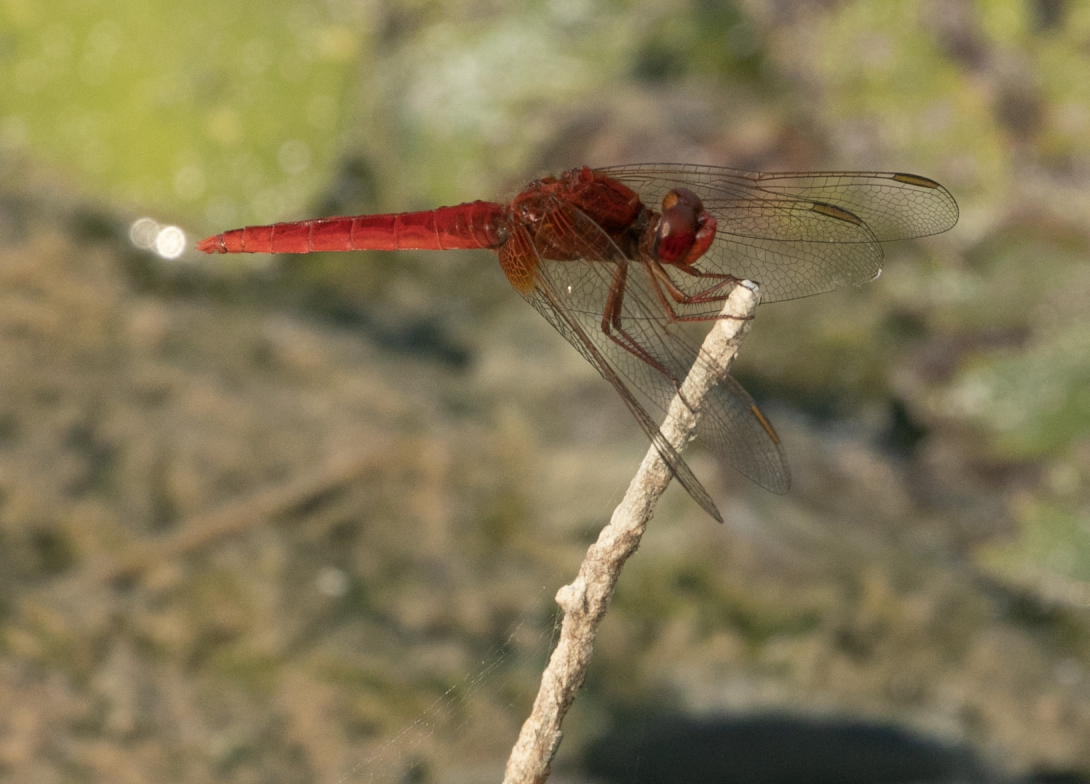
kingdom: Animalia
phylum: Arthropoda
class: Insecta
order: Odonata
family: Libellulidae
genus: Crocothemis
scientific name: Crocothemis erythraea
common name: Scarlet dragonfly
